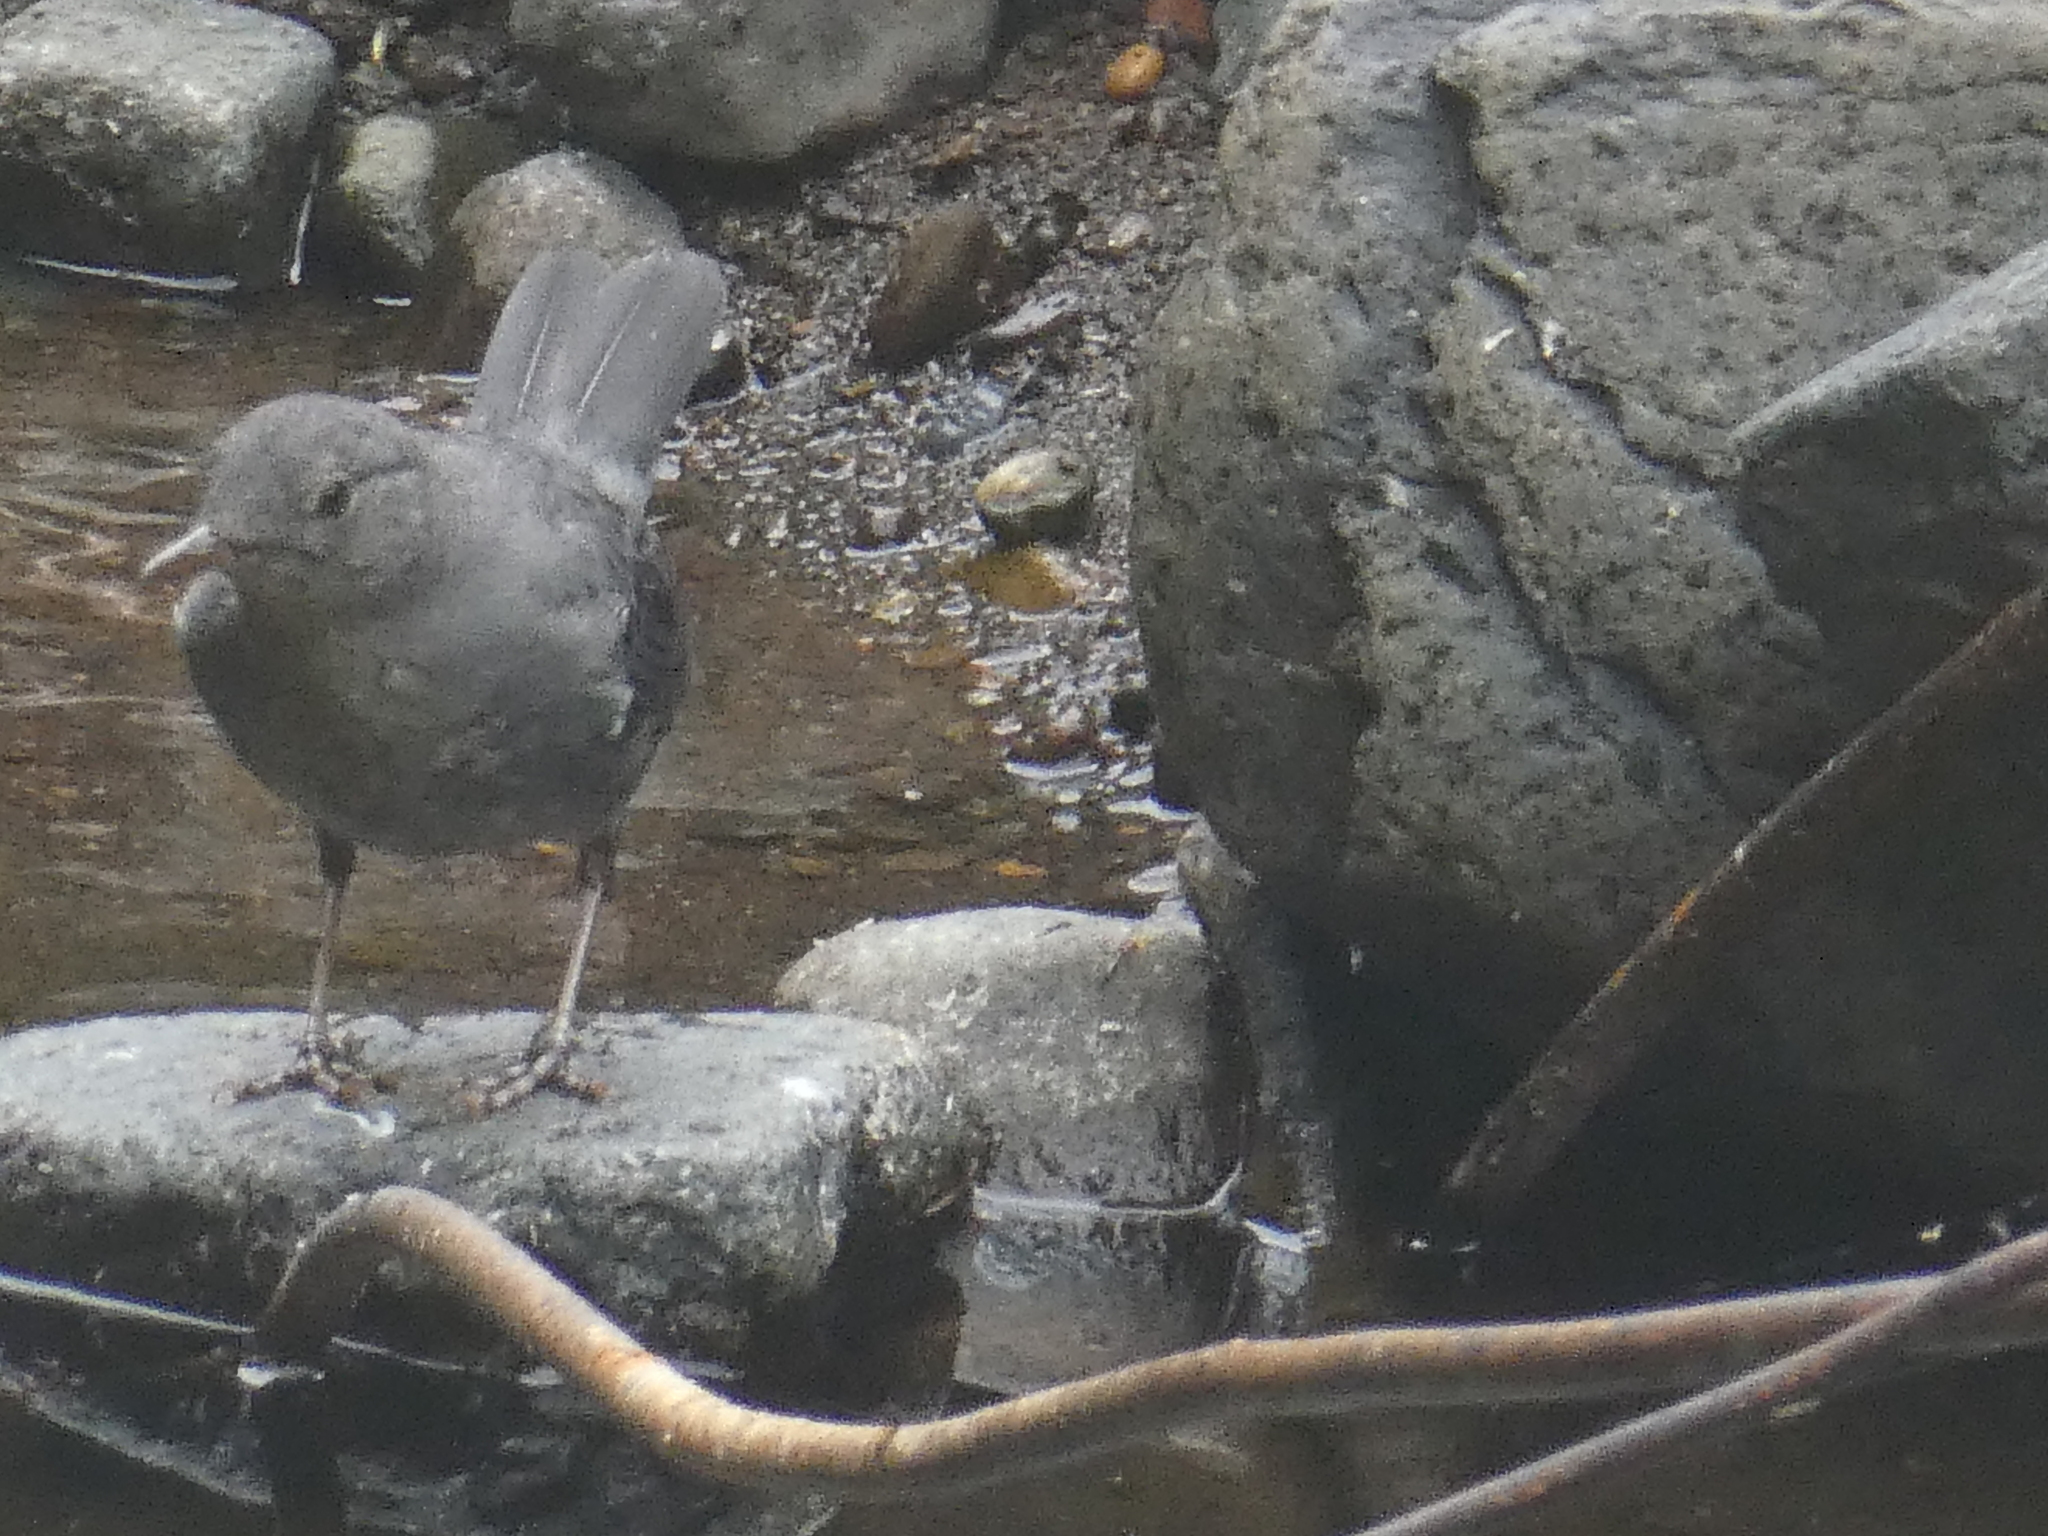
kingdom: Animalia
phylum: Chordata
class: Aves
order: Passeriformes
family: Cinclidae
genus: Cinclus
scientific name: Cinclus mexicanus
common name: American dipper
